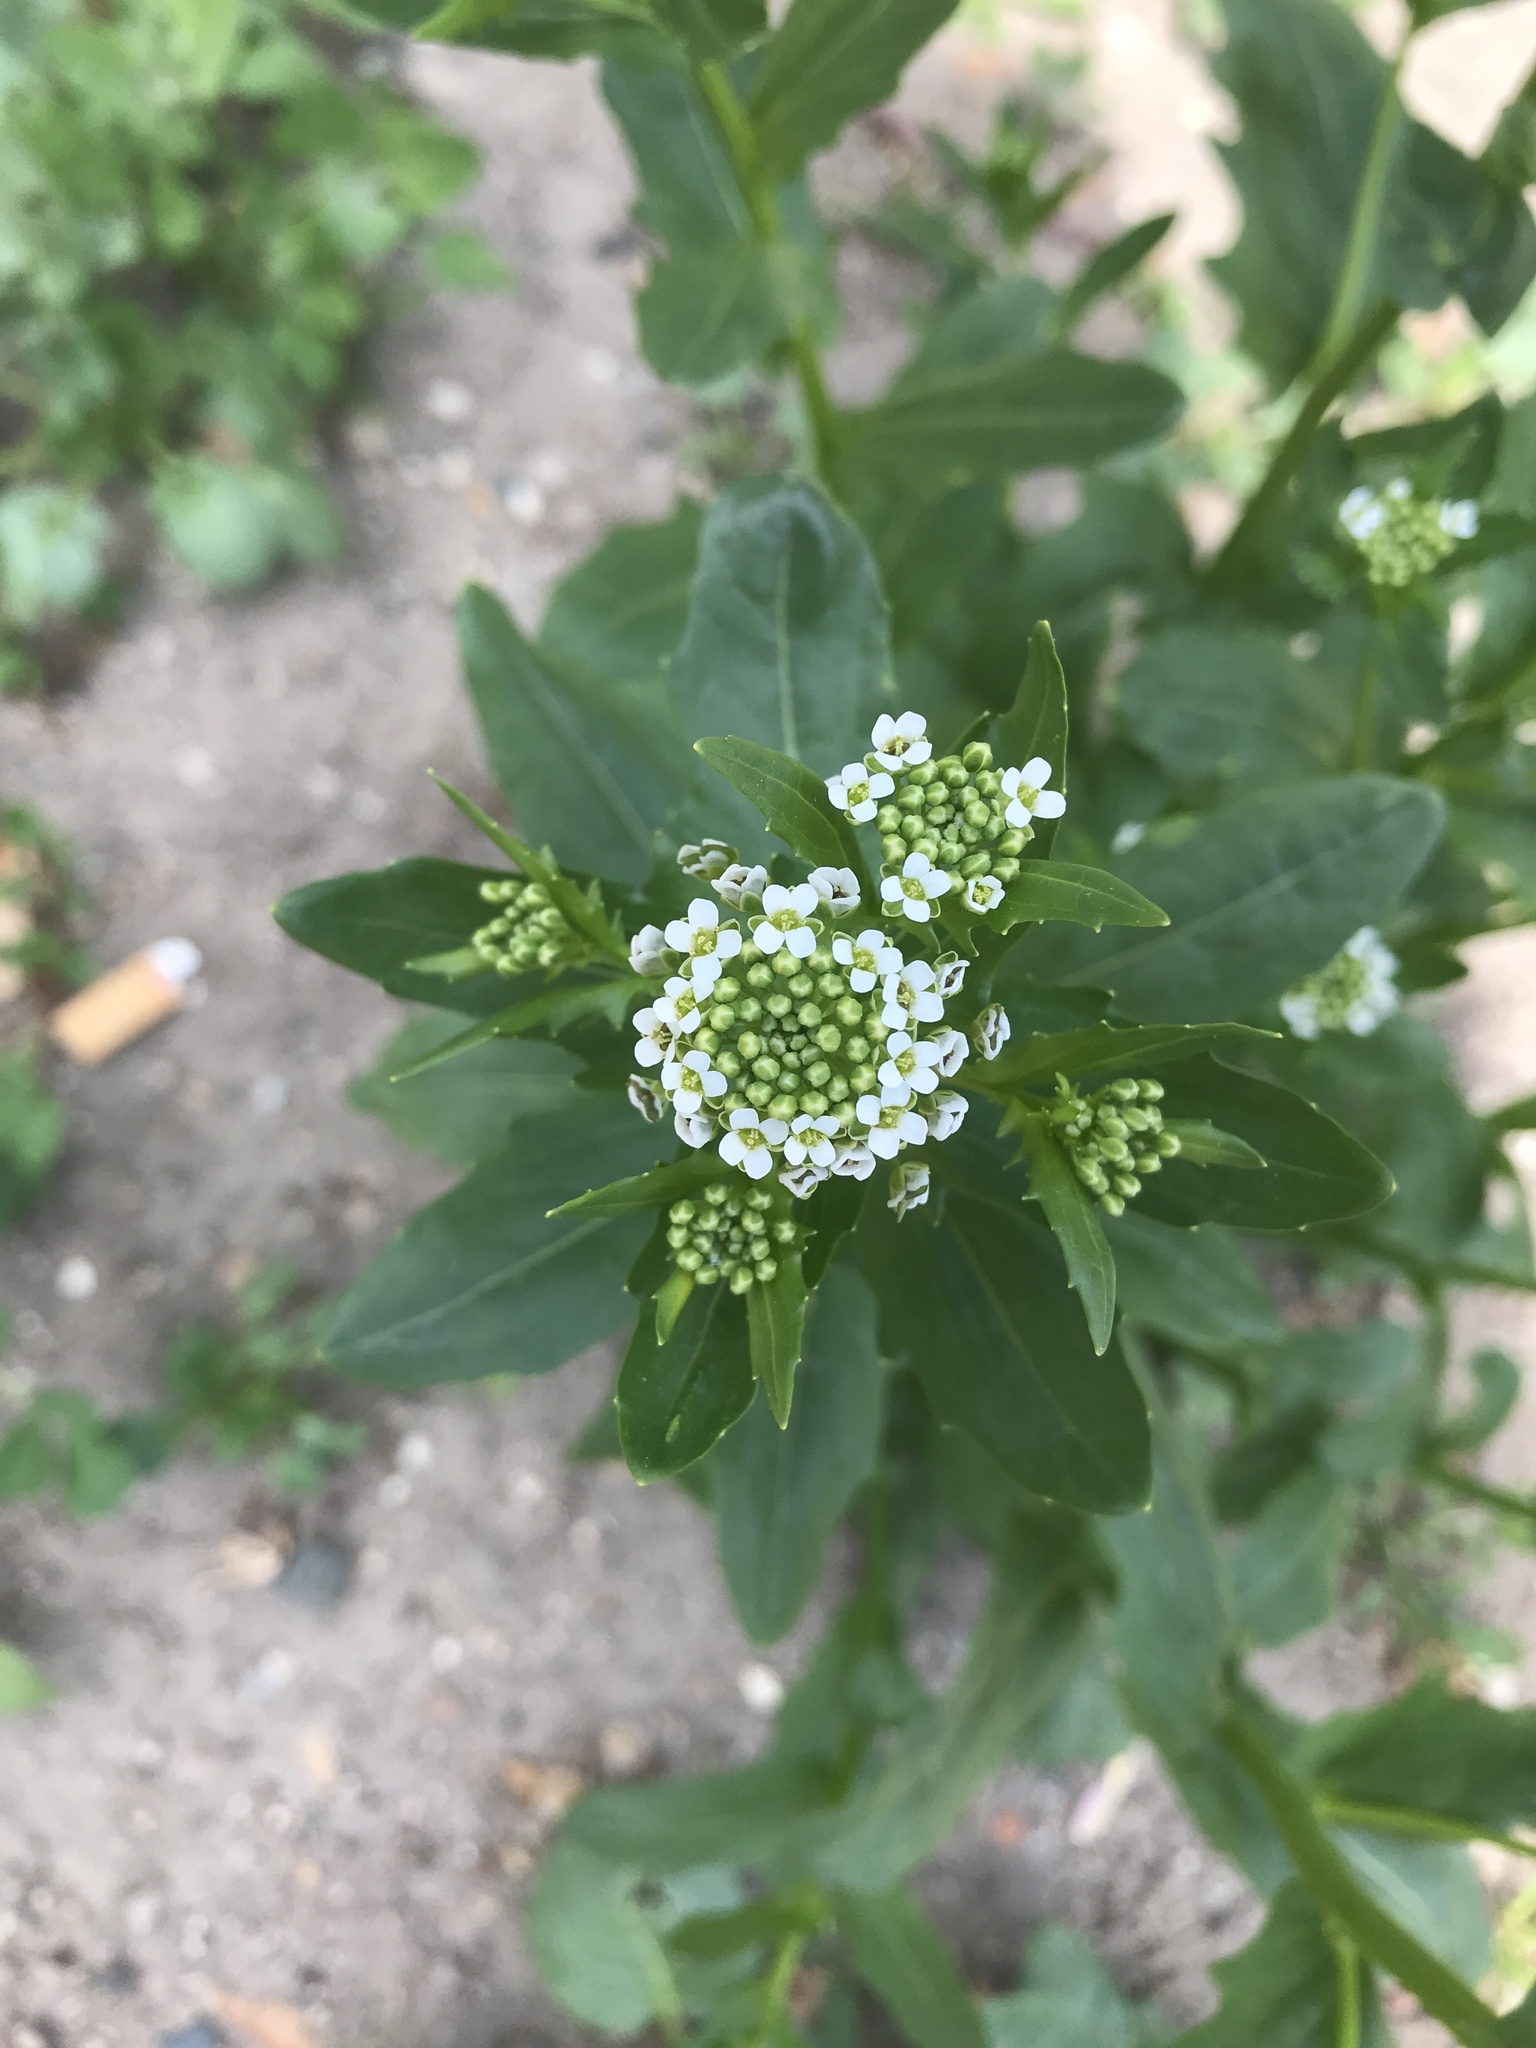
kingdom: Plantae
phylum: Tracheophyta
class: Magnoliopsida
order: Brassicales
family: Brassicaceae
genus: Thlaspi
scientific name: Thlaspi arvense
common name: Field pennycress
